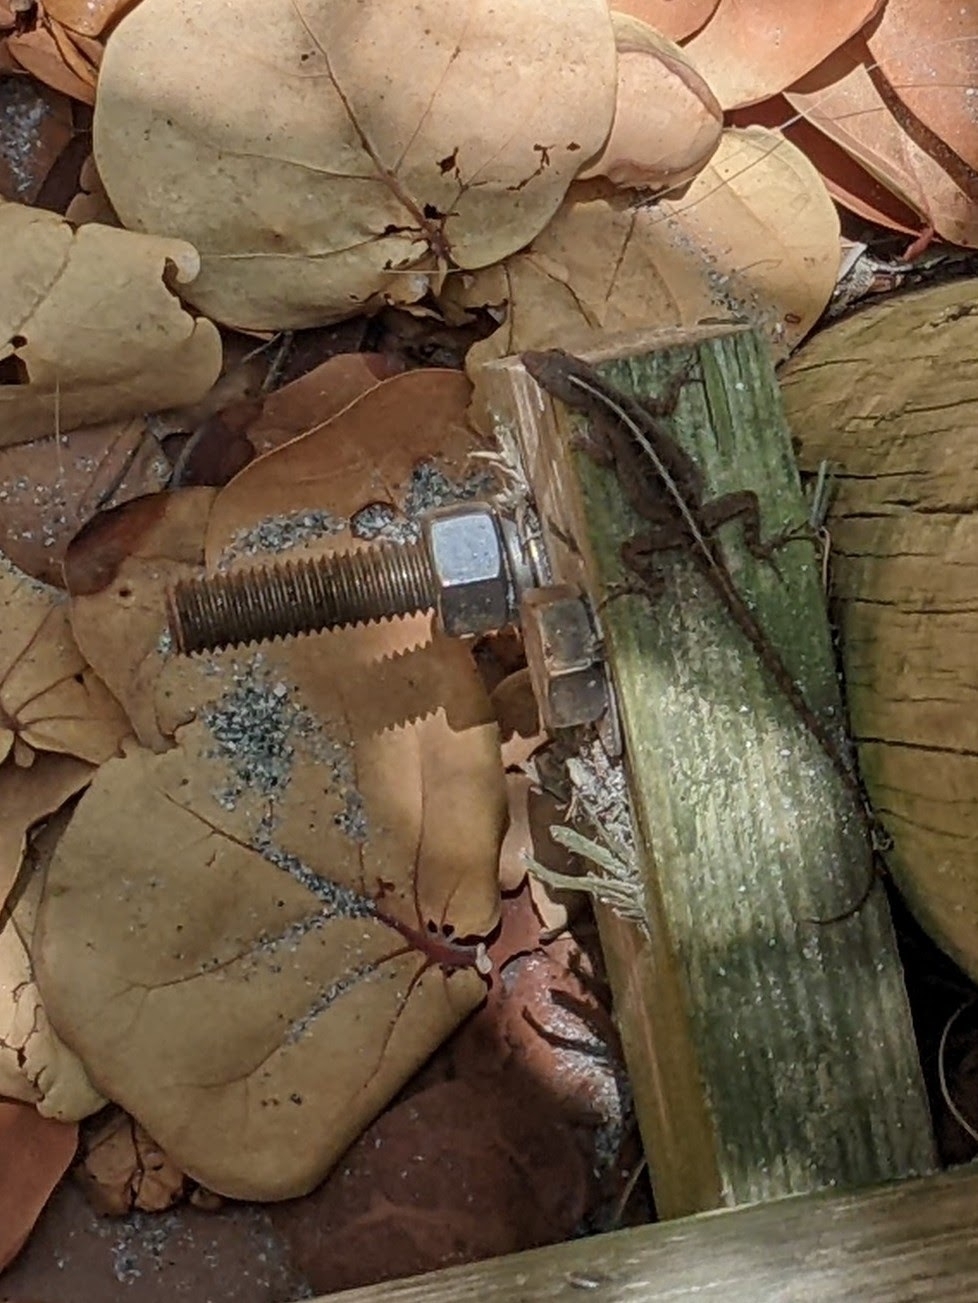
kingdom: Animalia
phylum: Chordata
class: Squamata
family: Dactyloidae
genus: Anolis
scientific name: Anolis sagrei
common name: Brown anole
